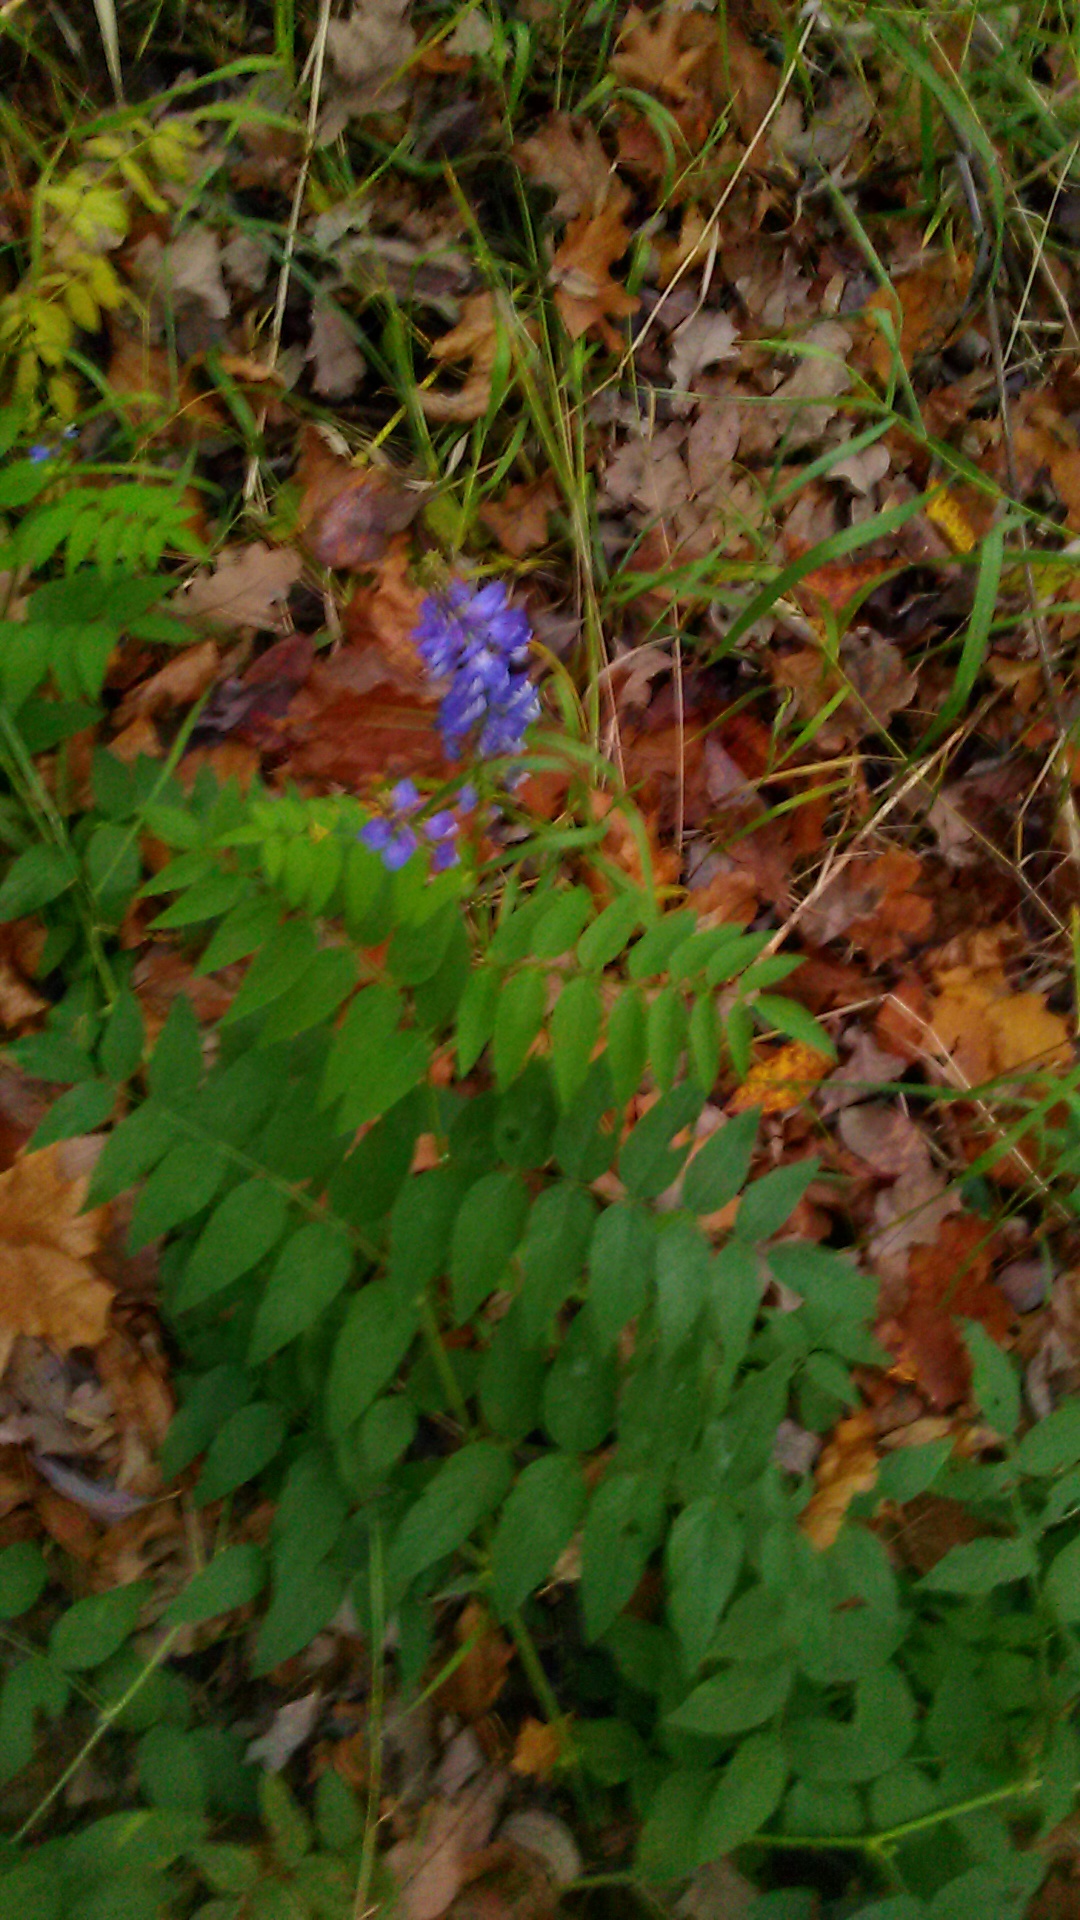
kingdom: Plantae
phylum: Tracheophyta
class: Magnoliopsida
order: Fabales
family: Fabaceae
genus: Galega
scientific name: Galega orientalis
